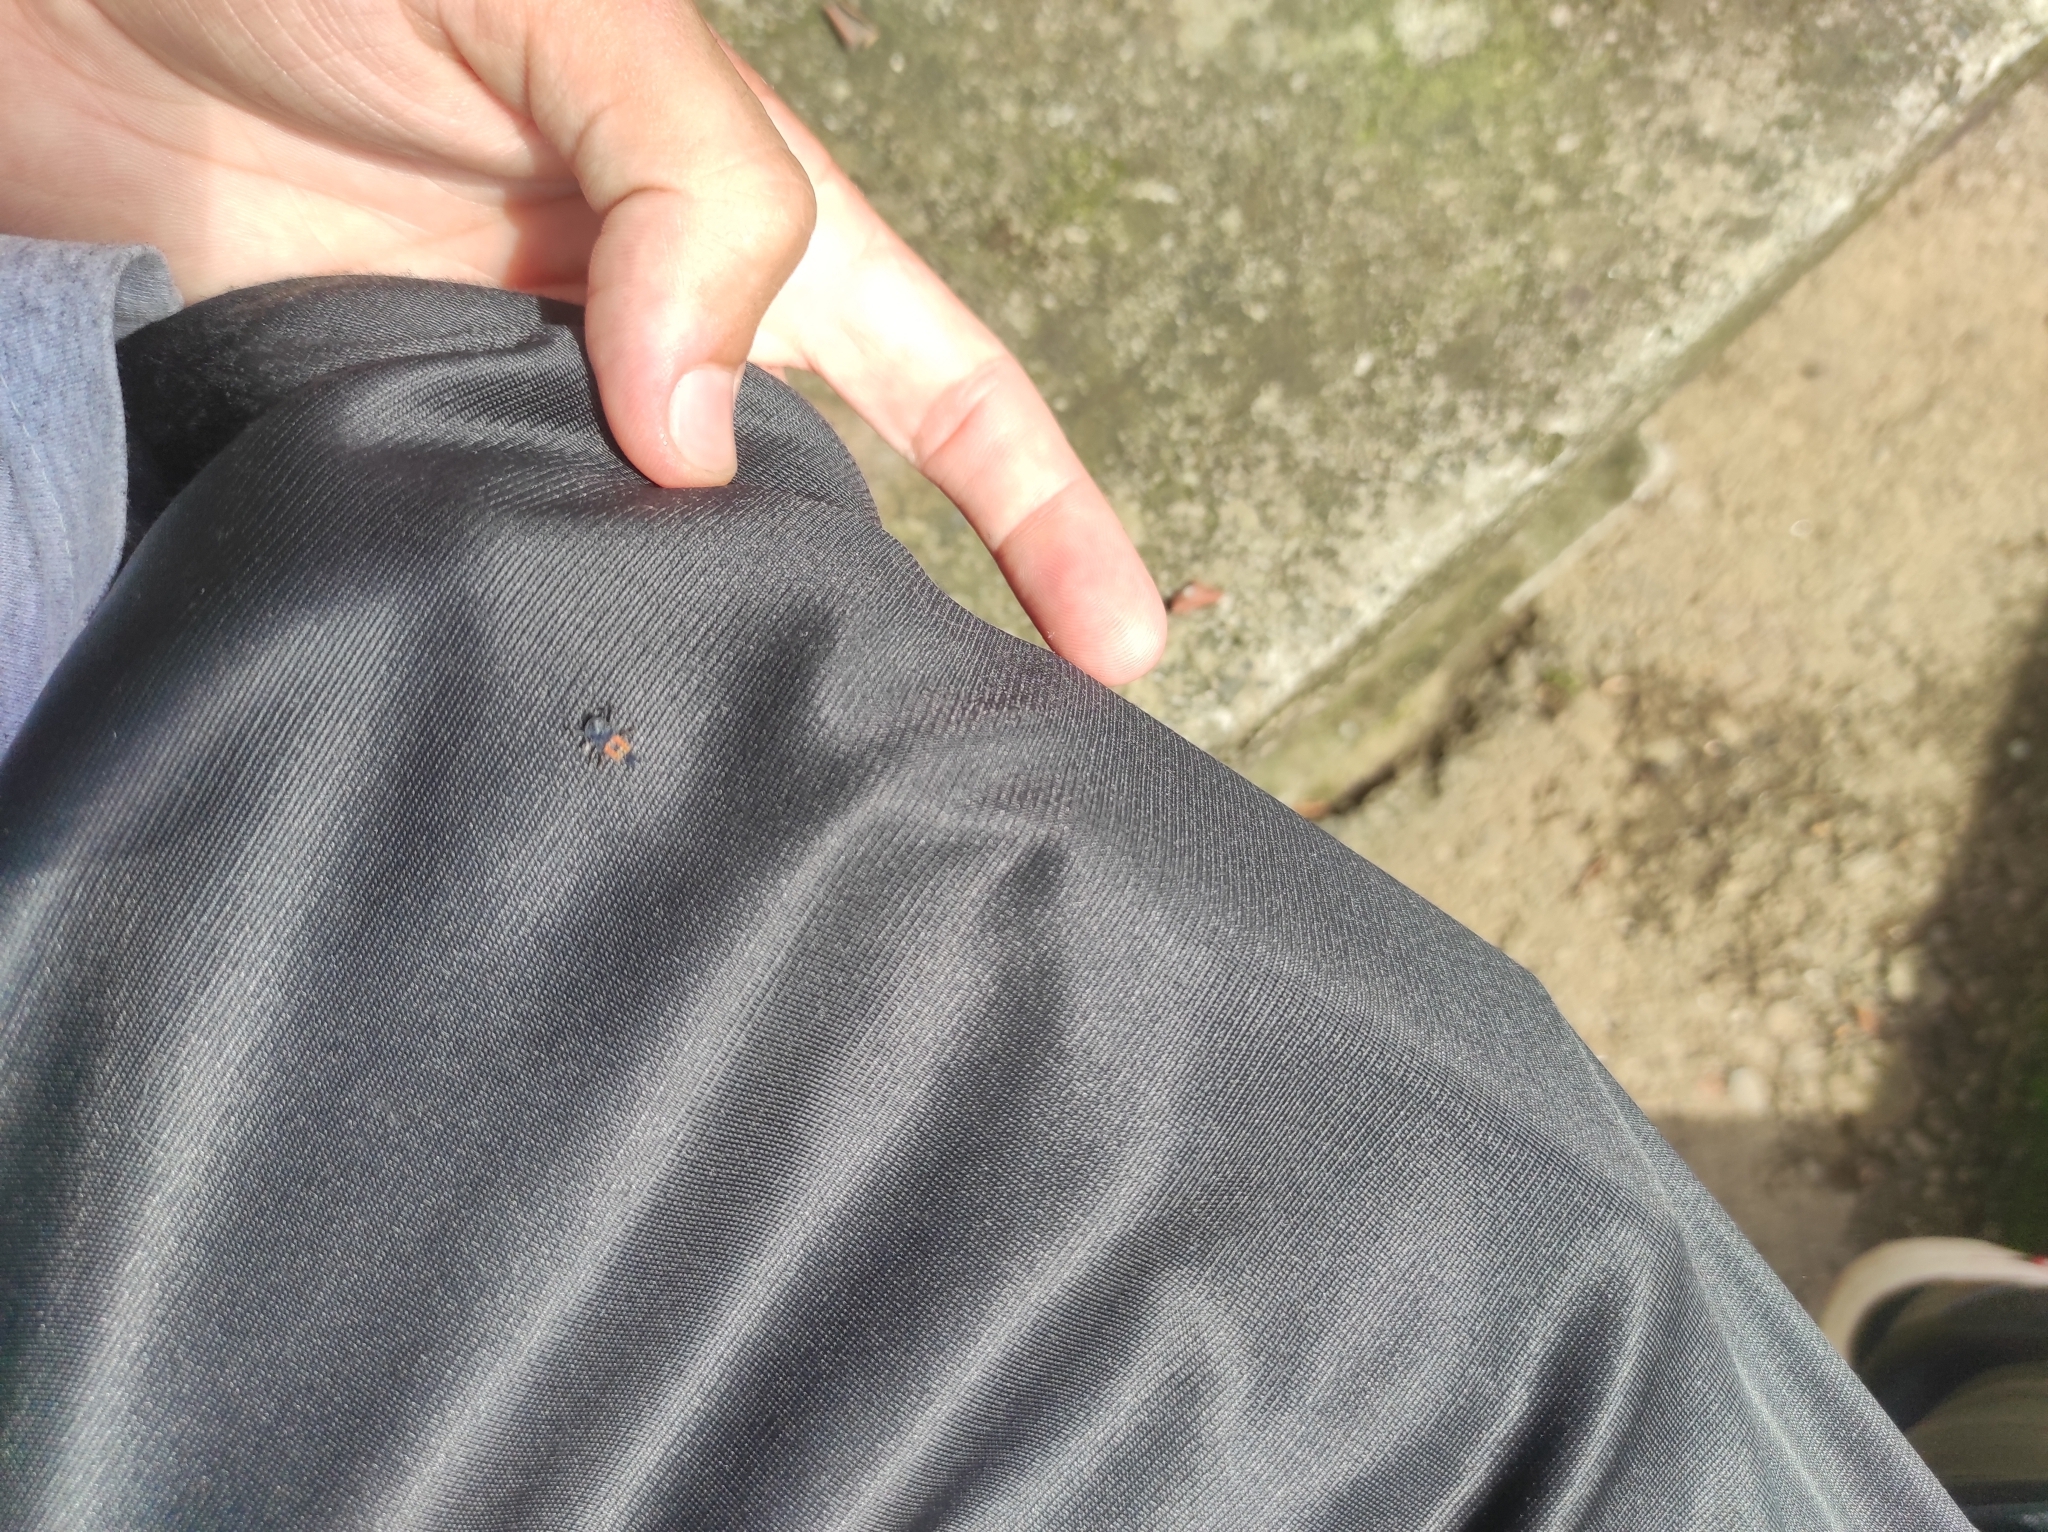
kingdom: Animalia
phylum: Arthropoda
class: Insecta
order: Coleoptera
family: Coccinellidae
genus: Harmonia
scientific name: Harmonia axyridis
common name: Harlequin ladybird
